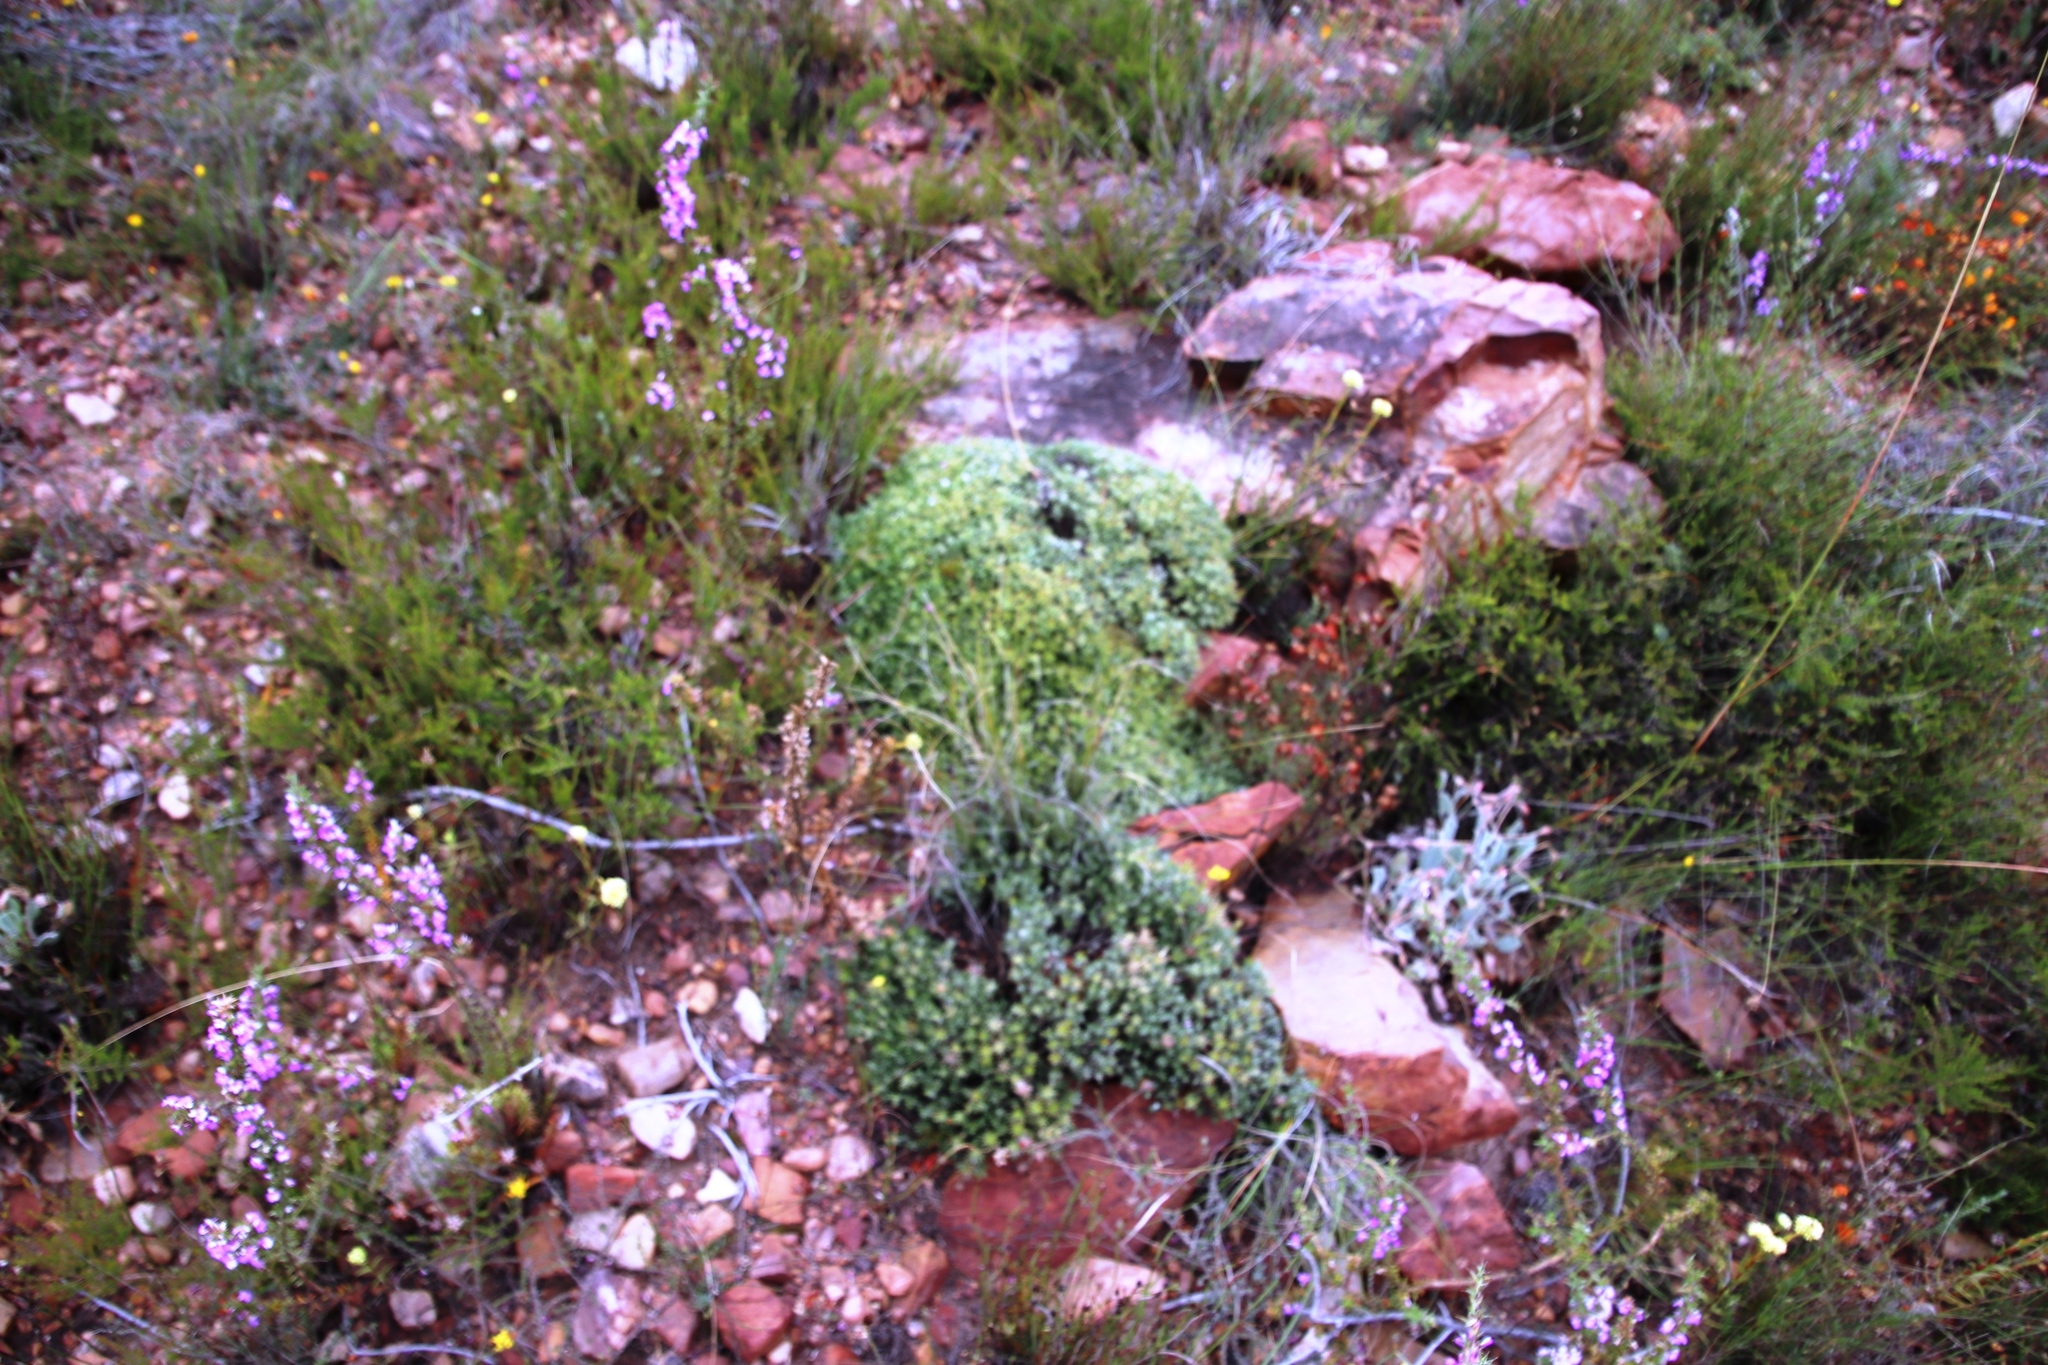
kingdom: Plantae
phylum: Tracheophyta
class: Magnoliopsida
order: Asterales
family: Asteraceae
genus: Macledium
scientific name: Macledium spinosum
